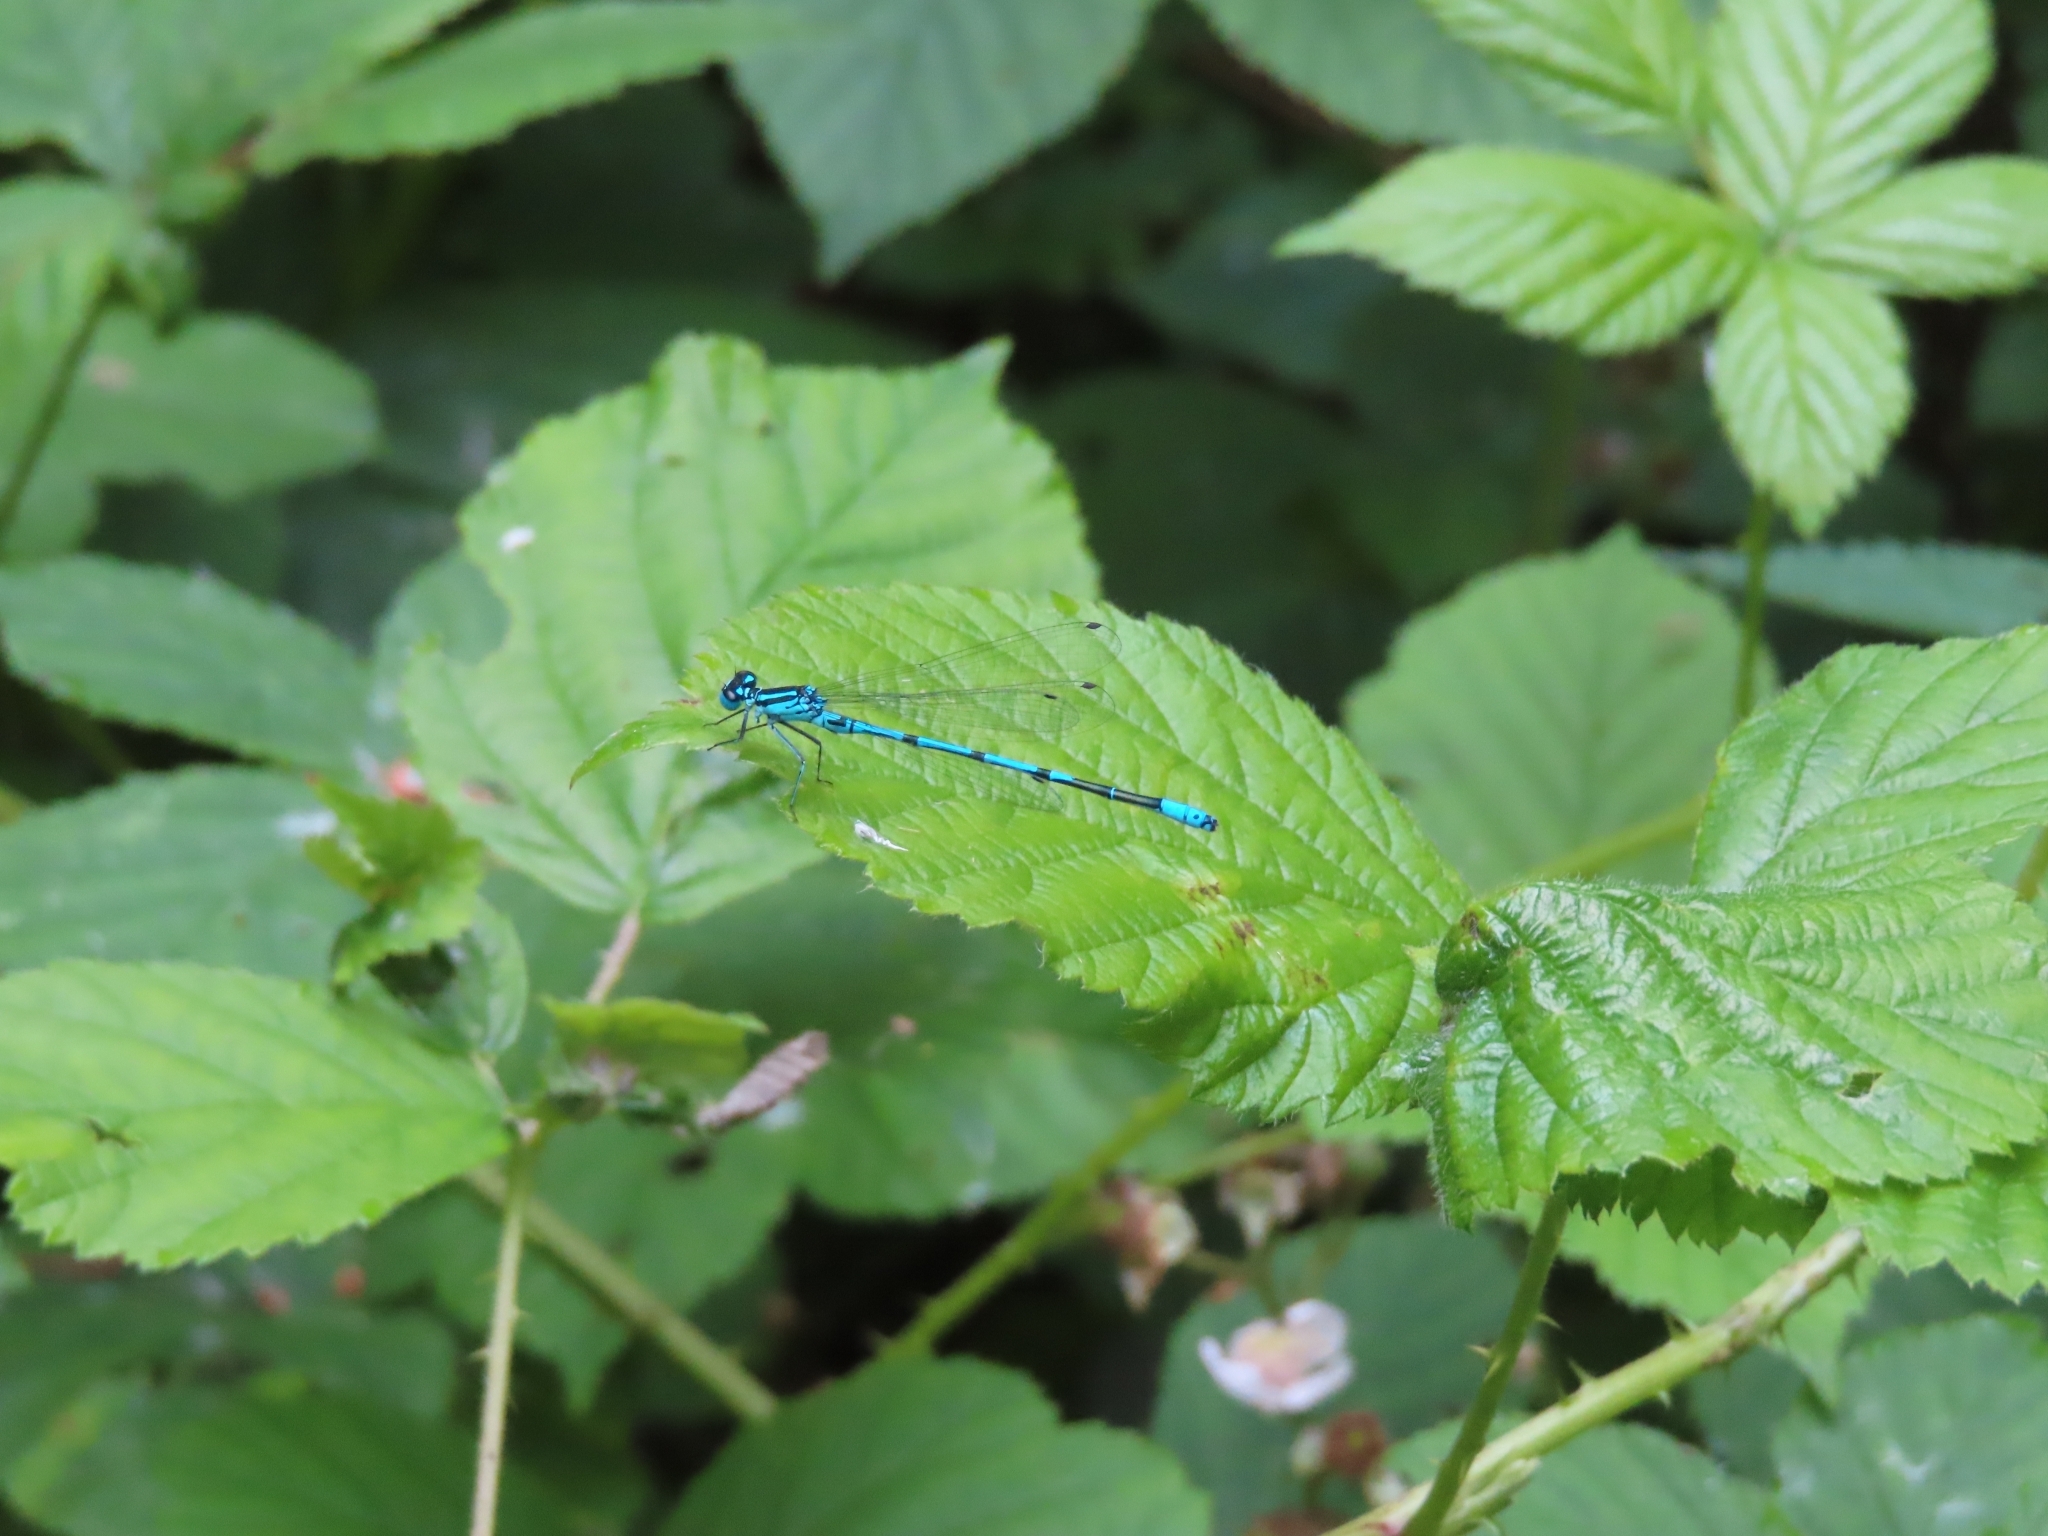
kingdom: Animalia
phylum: Arthropoda
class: Insecta
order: Odonata
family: Coenagrionidae
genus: Coenagrion
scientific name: Coenagrion puella
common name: Azure damselfly
